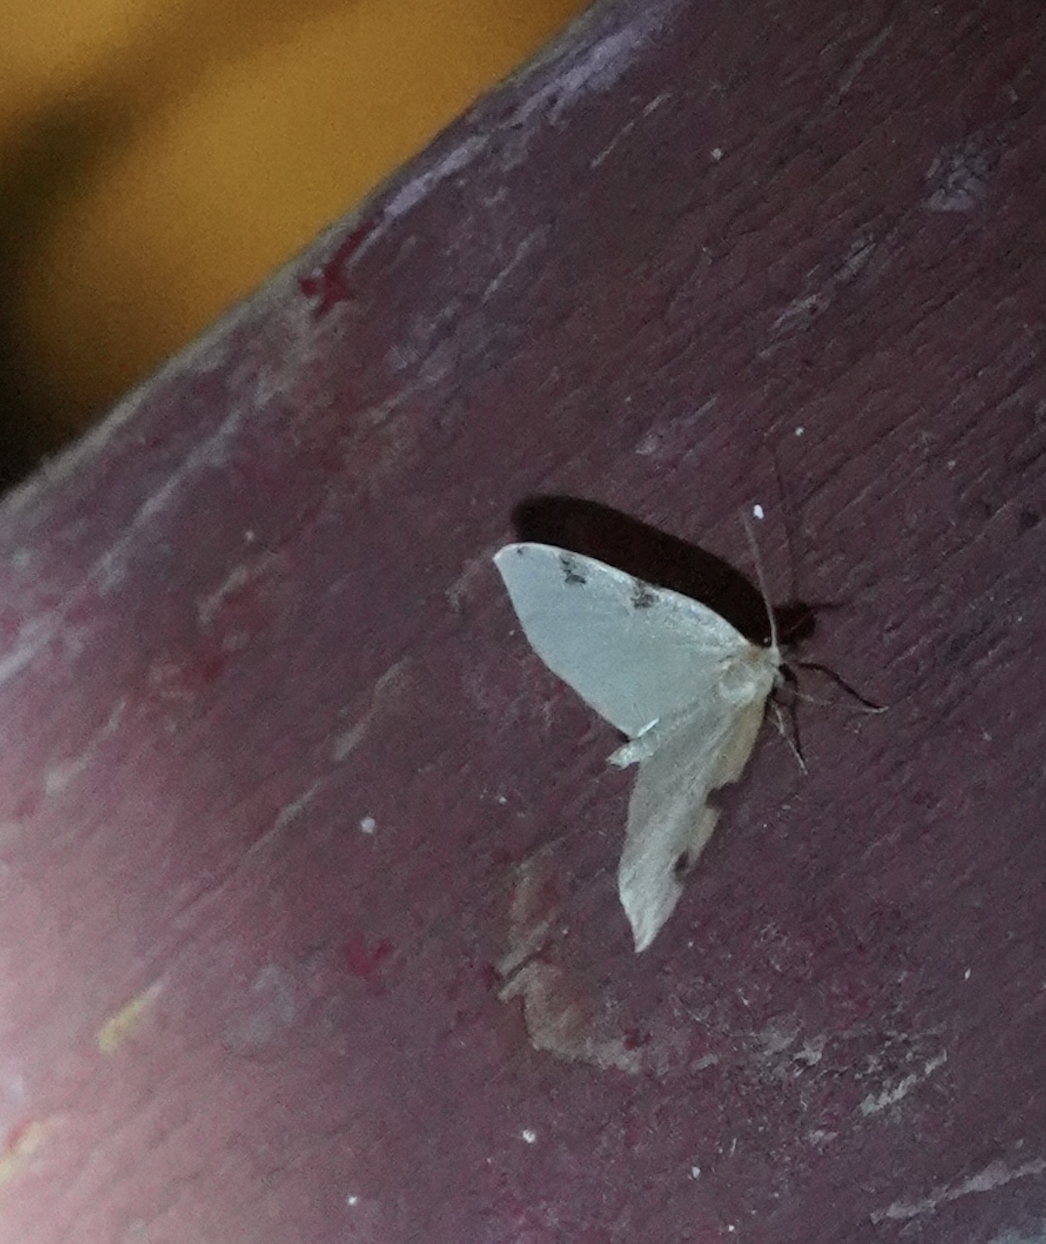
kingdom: Animalia
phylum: Arthropoda
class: Insecta
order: Lepidoptera
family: Geometridae
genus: Heterophleps
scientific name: Heterophleps triguttaria
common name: Three-spotted fillip
